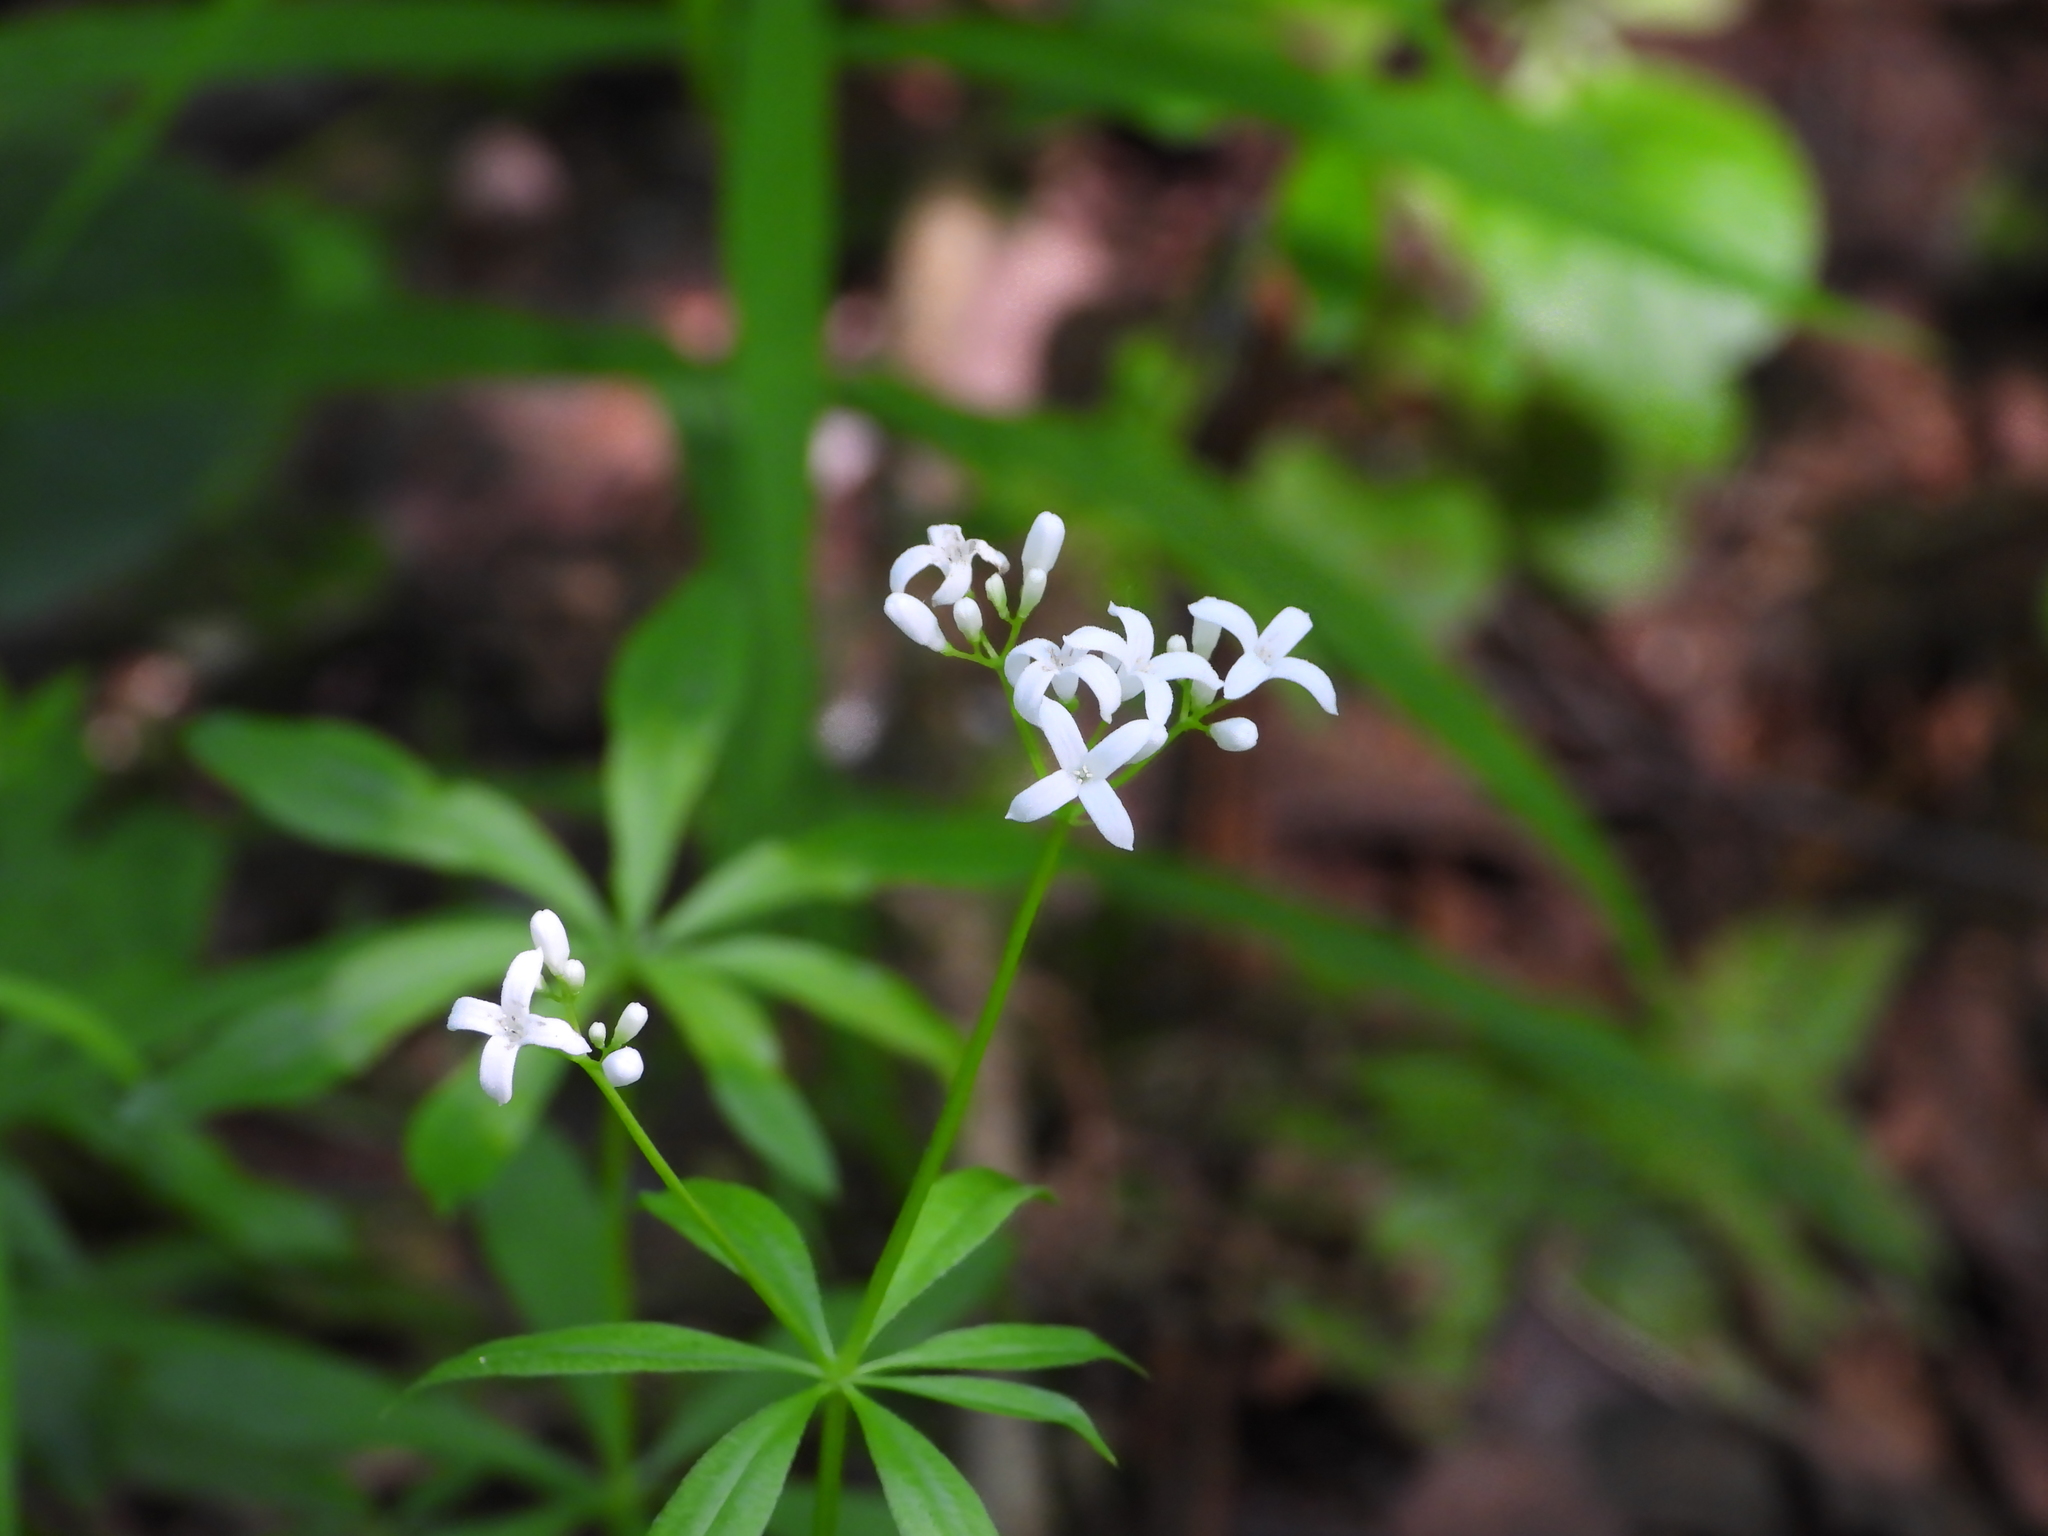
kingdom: Plantae
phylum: Tracheophyta
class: Magnoliopsida
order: Gentianales
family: Rubiaceae
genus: Galium
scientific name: Galium odoratum
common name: Sweet woodruff
